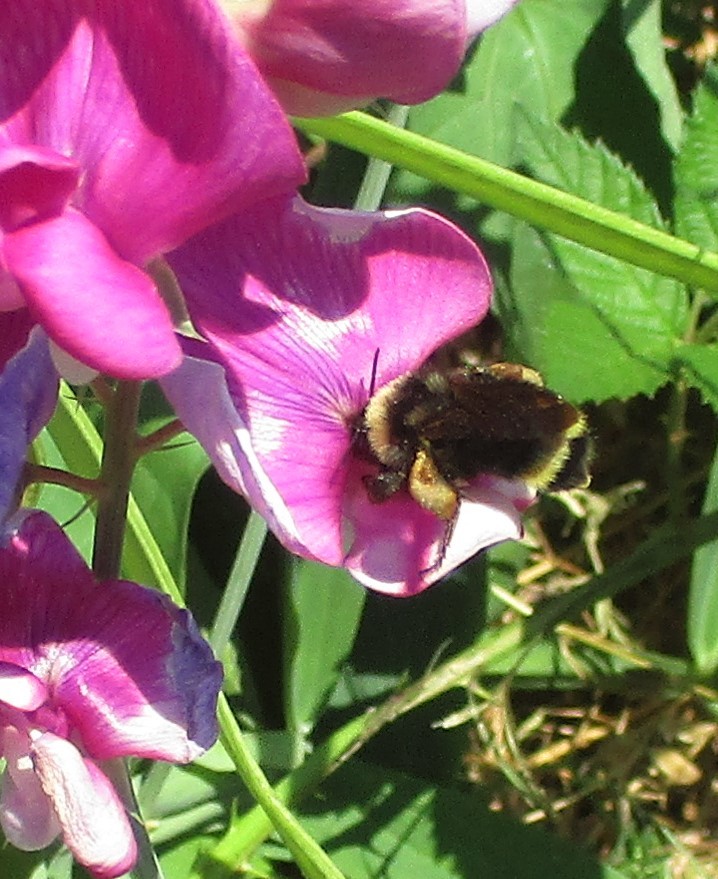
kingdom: Animalia
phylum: Arthropoda
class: Insecta
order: Hymenoptera
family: Apidae
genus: Bombus
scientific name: Bombus californicus
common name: California bumble bee
